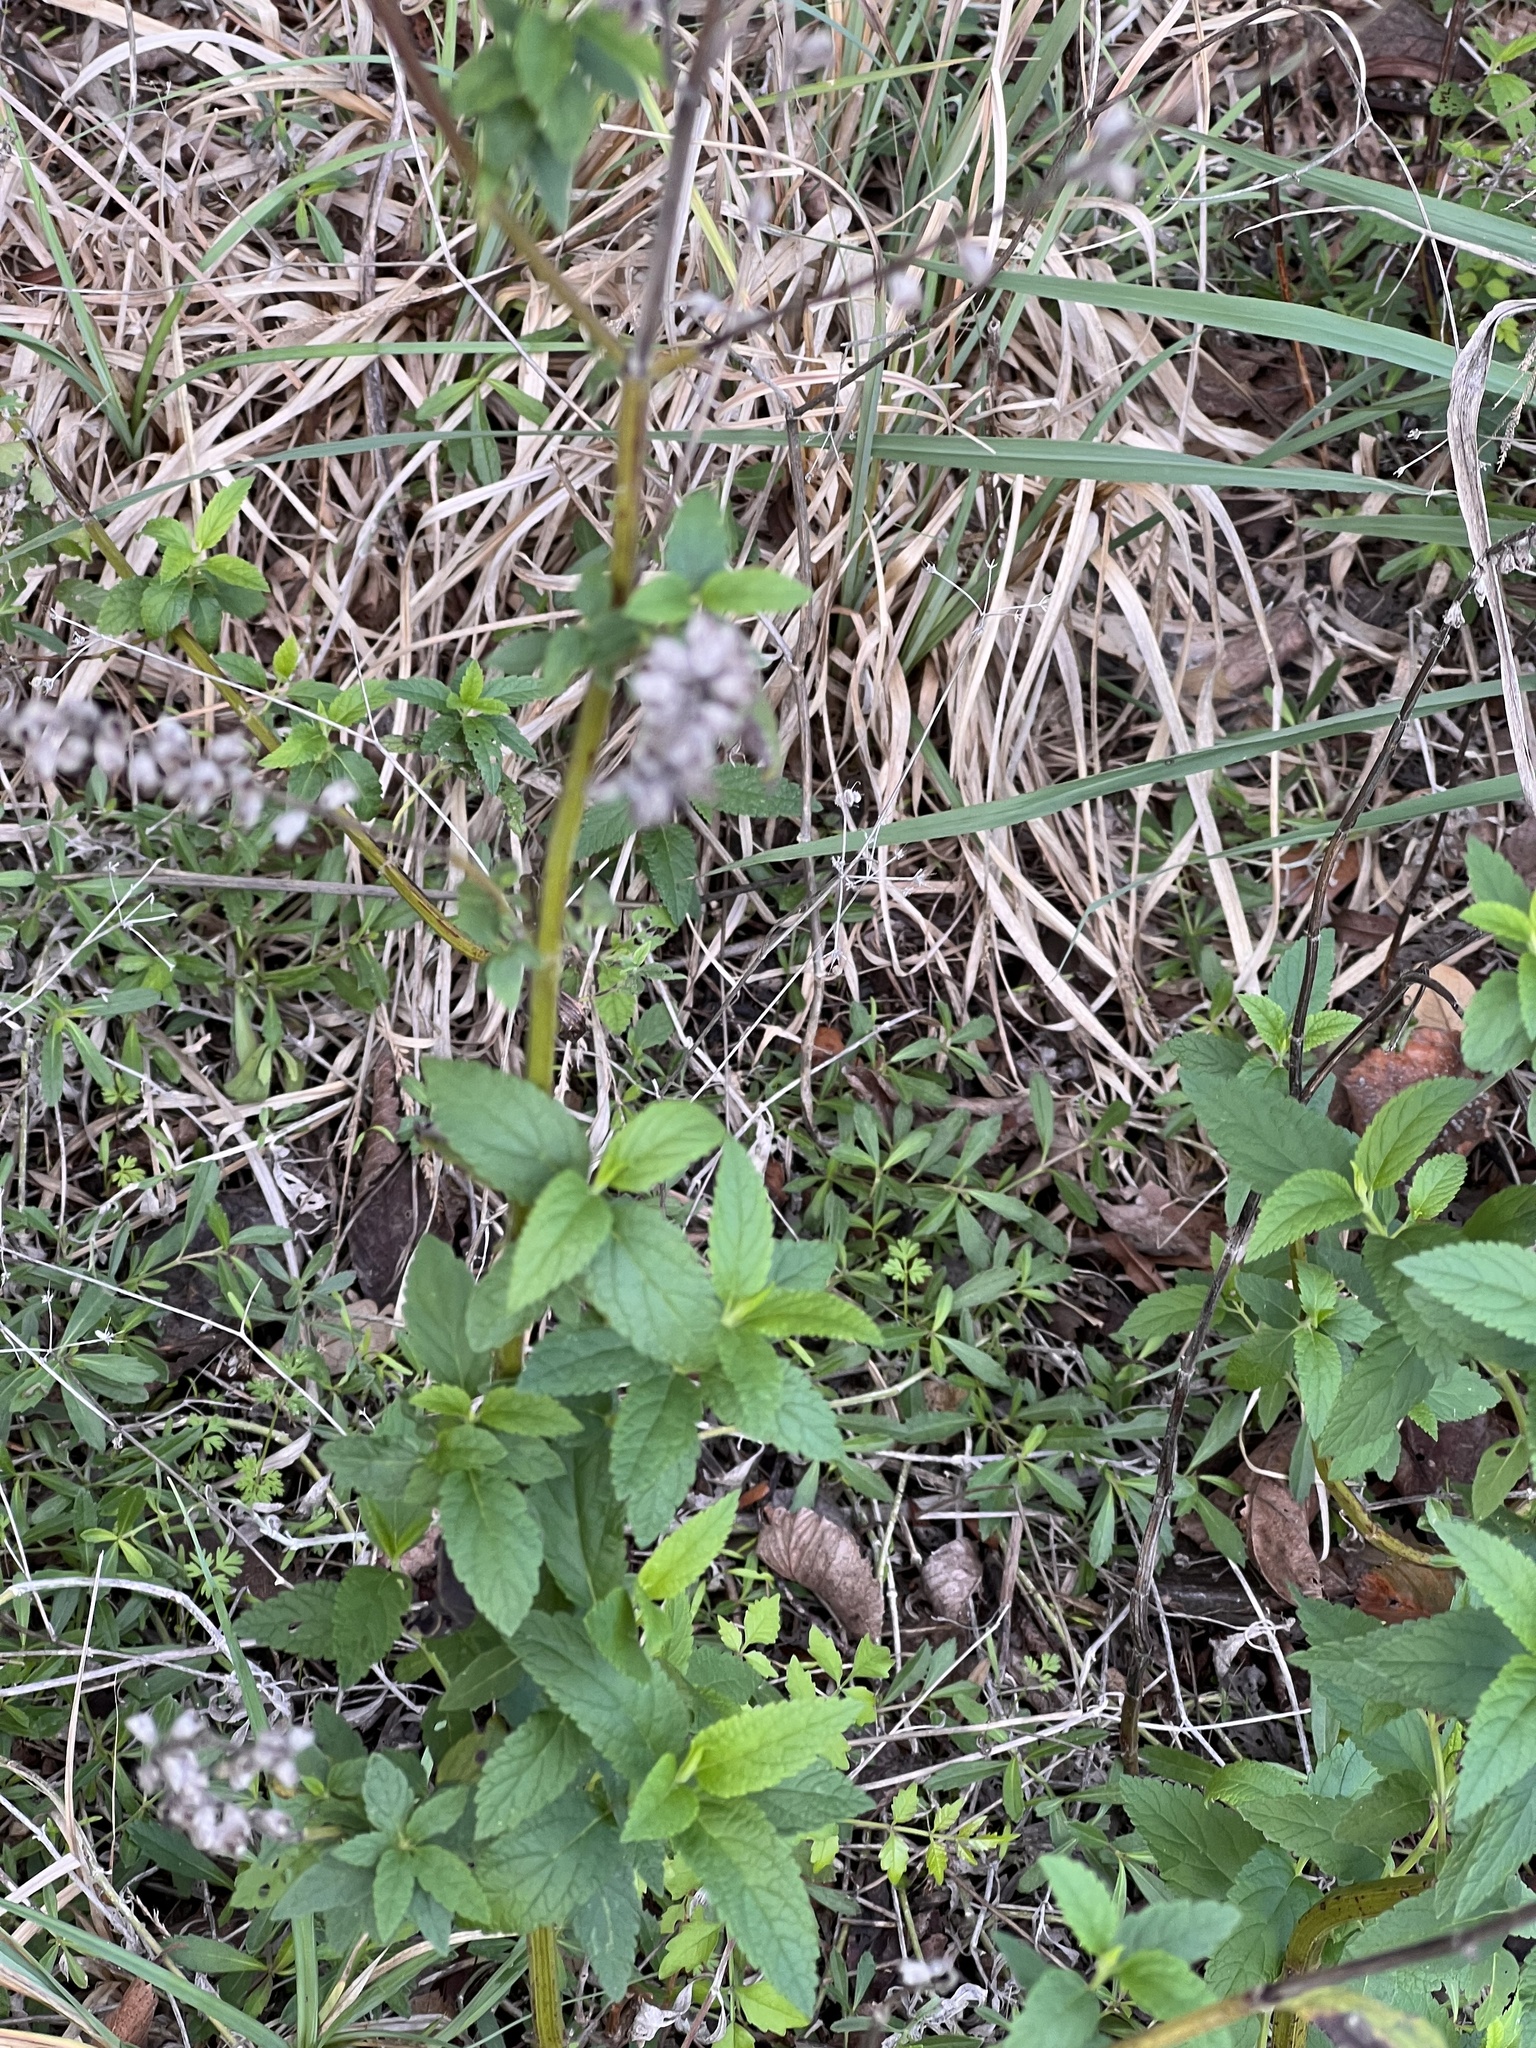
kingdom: Plantae
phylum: Tracheophyta
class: Magnoliopsida
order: Lamiales
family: Lamiaceae
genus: Teucrium
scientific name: Teucrium canadense
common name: American germander
